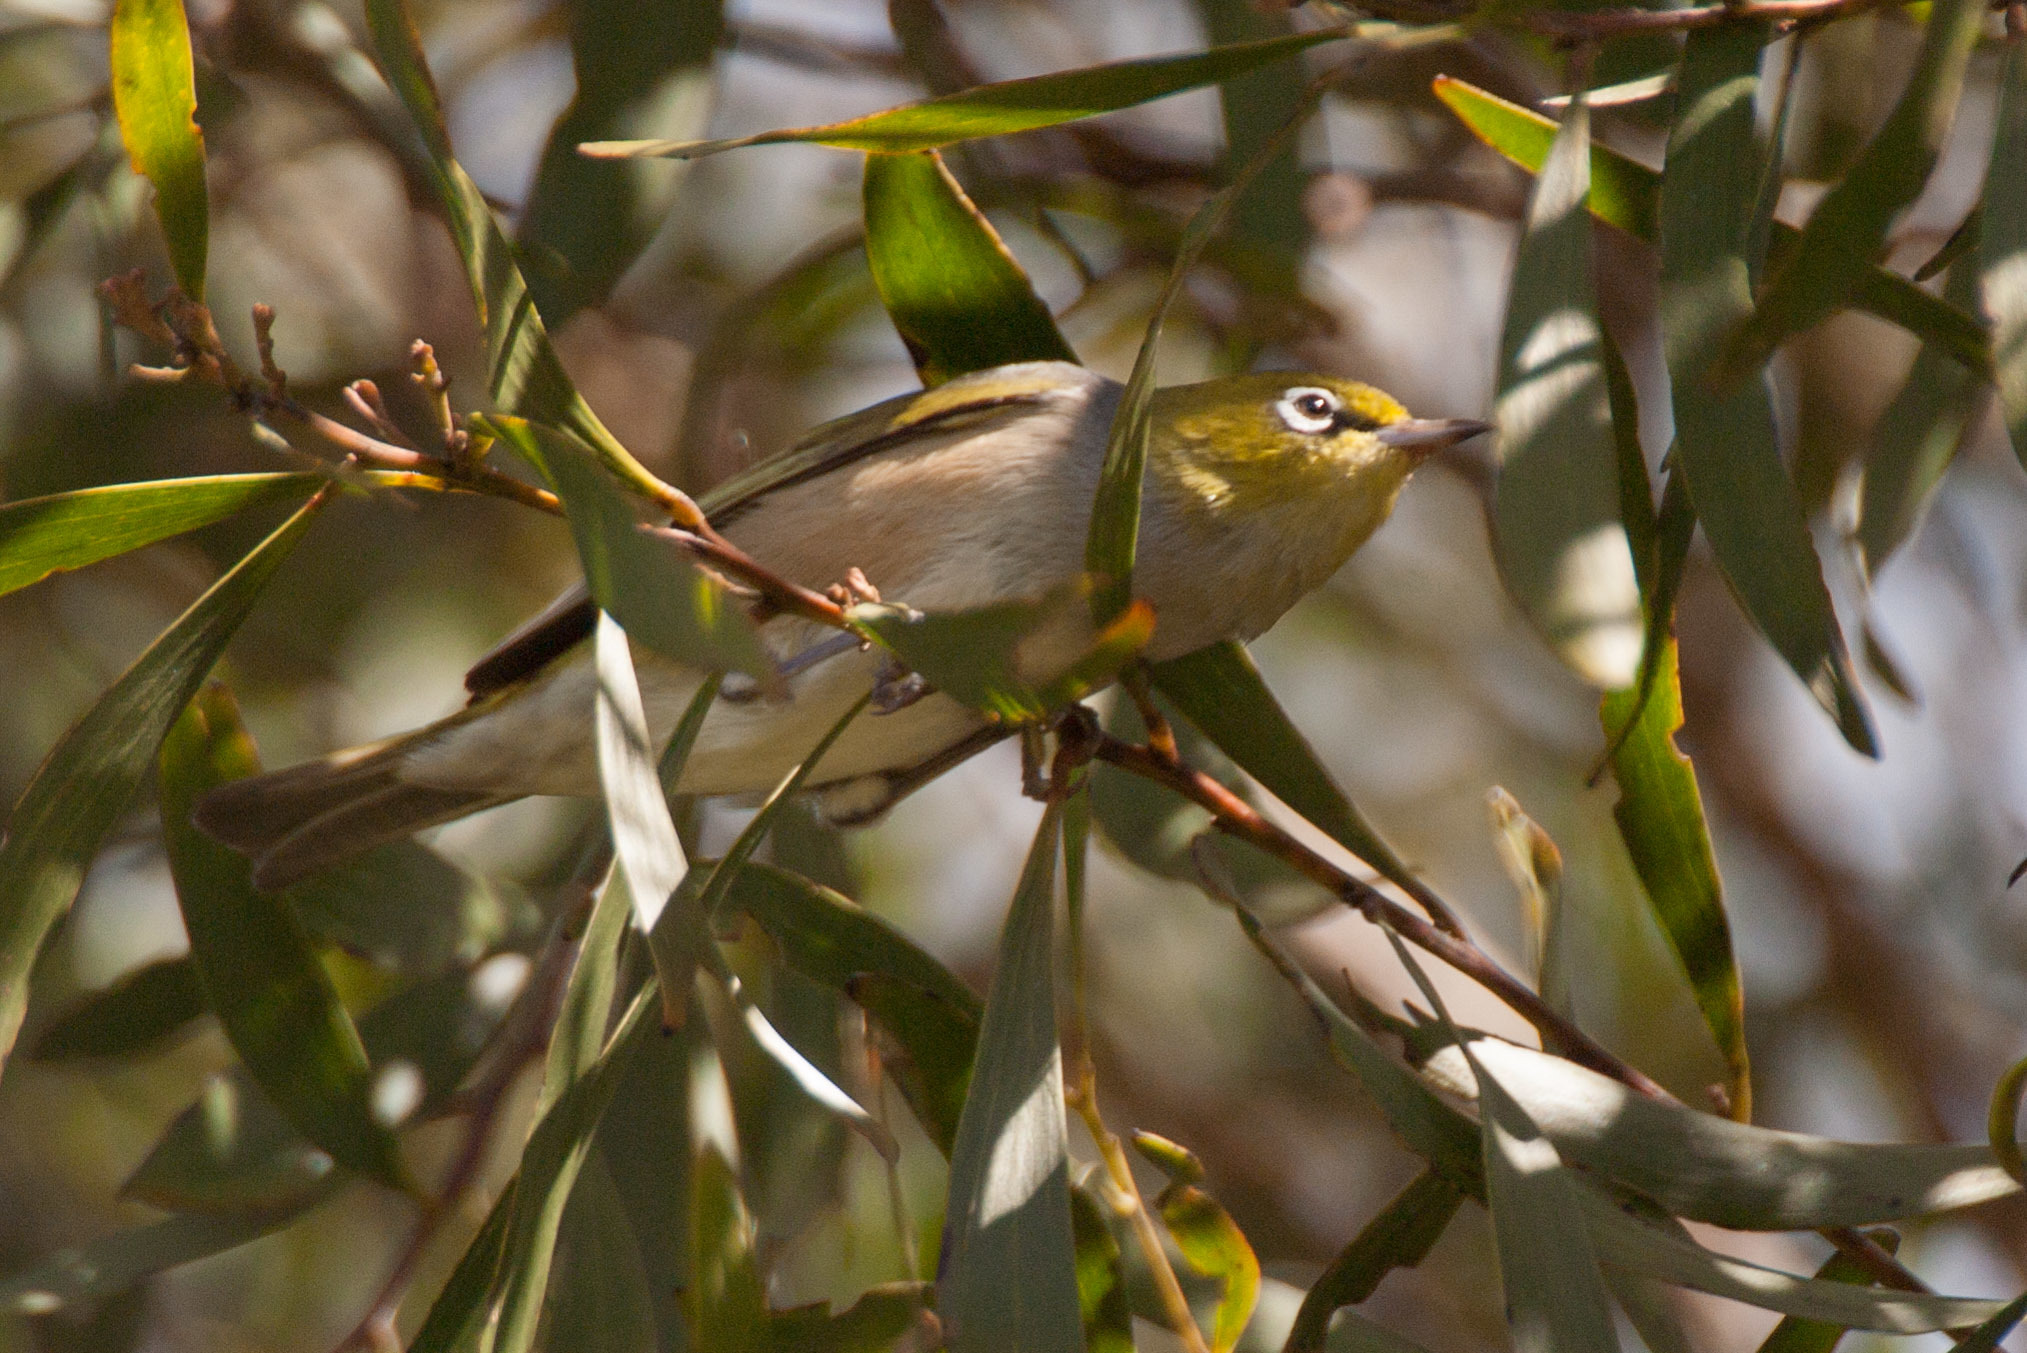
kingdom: Animalia
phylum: Chordata
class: Aves
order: Passeriformes
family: Zosteropidae
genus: Zosterops
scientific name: Zosterops lateralis
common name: Silvereye
